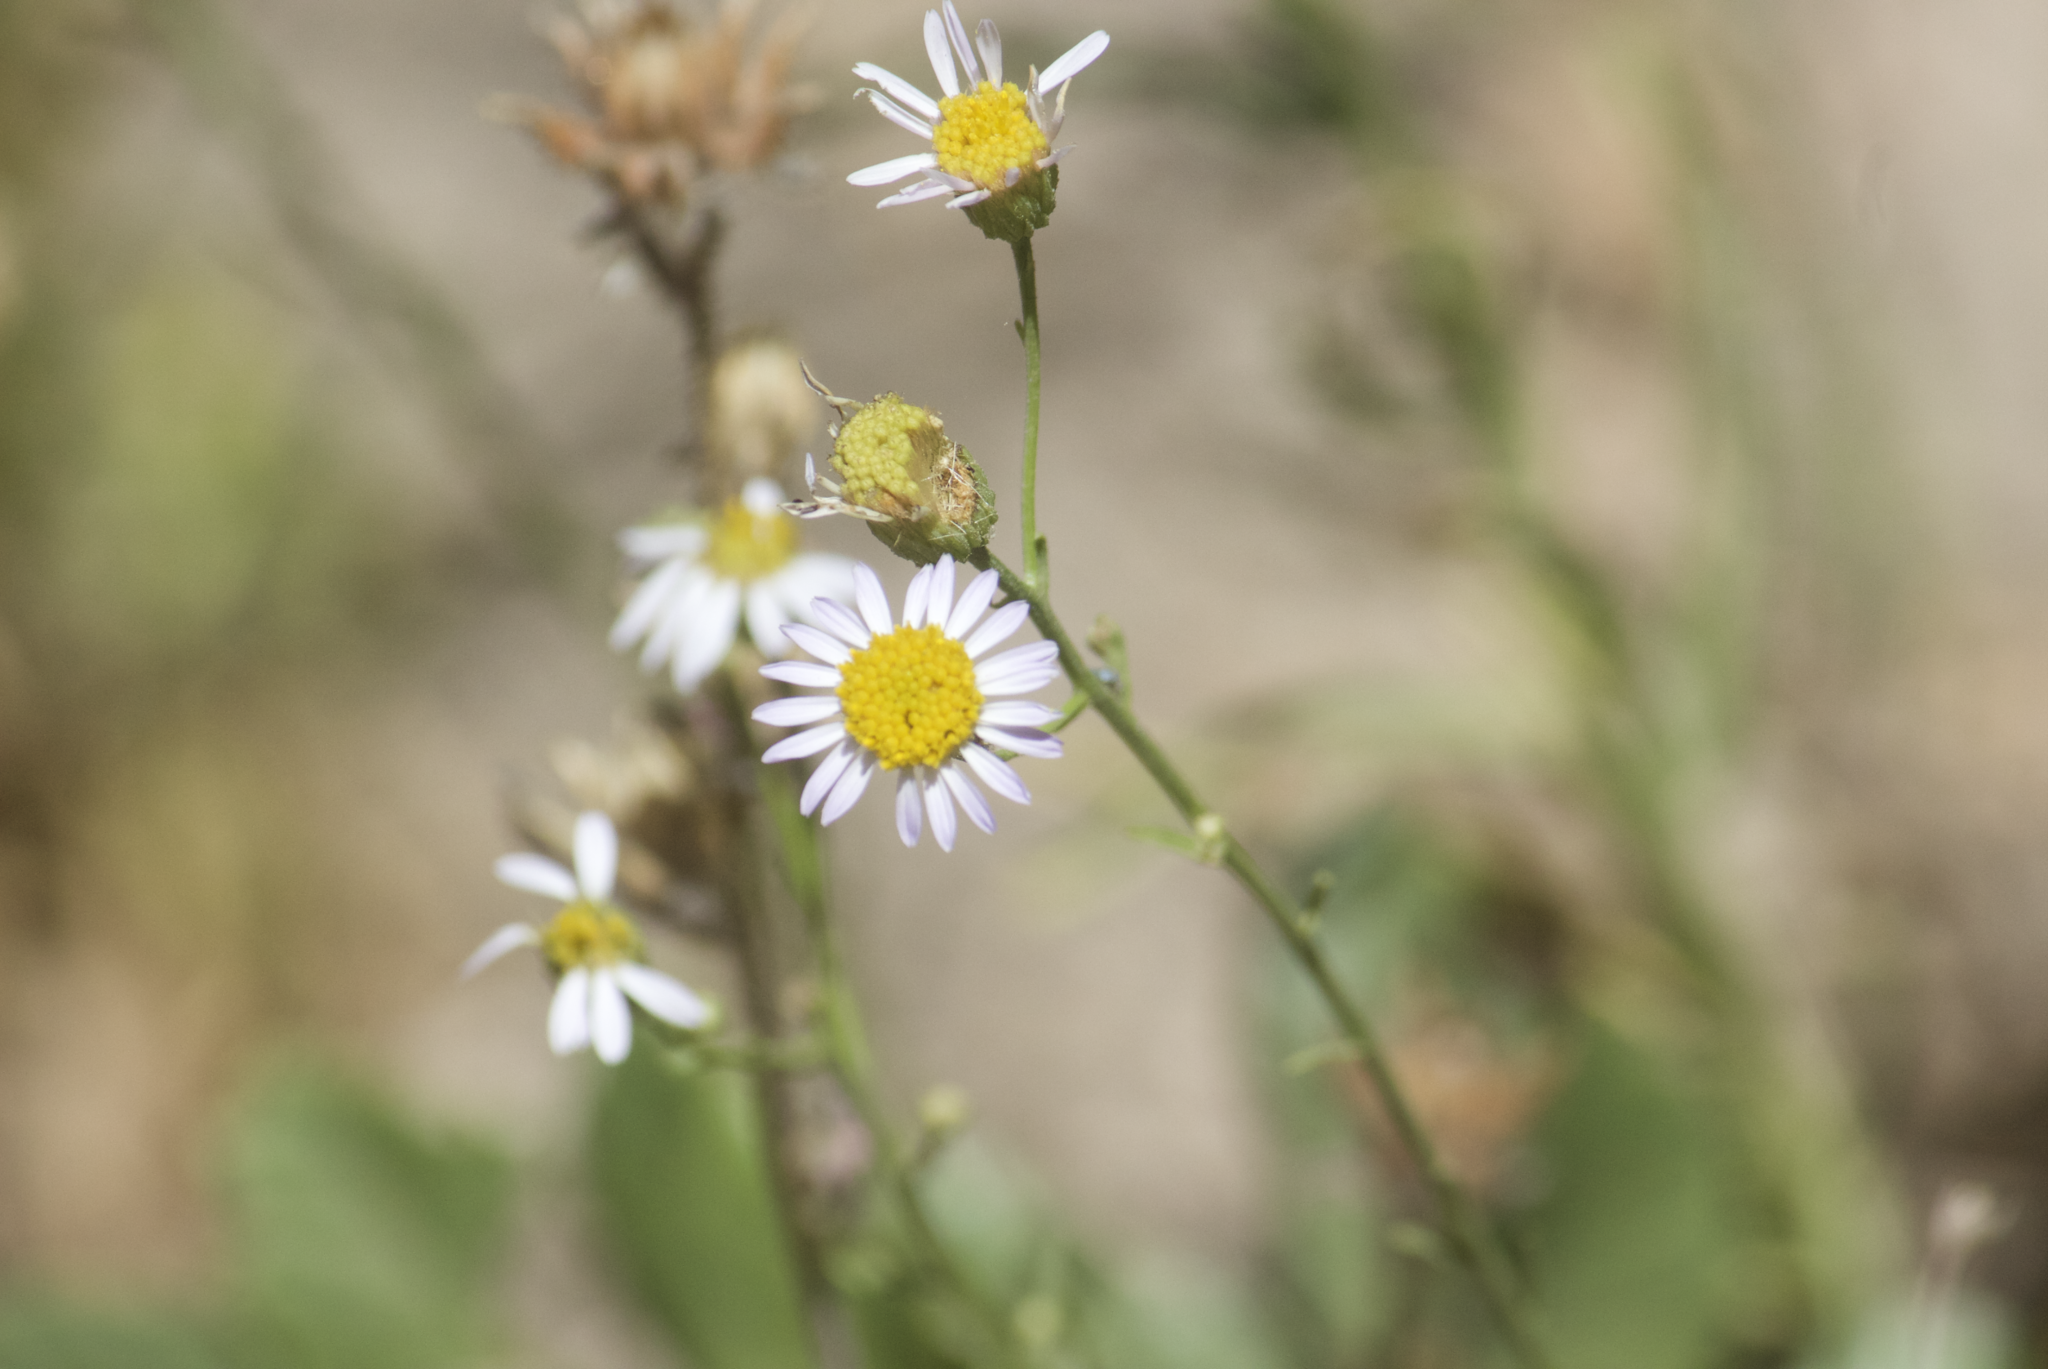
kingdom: Plantae
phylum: Tracheophyta
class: Magnoliopsida
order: Asterales
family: Asteraceae
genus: Erigeron
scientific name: Erigeron karvinskianus
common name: Mexican fleabane
